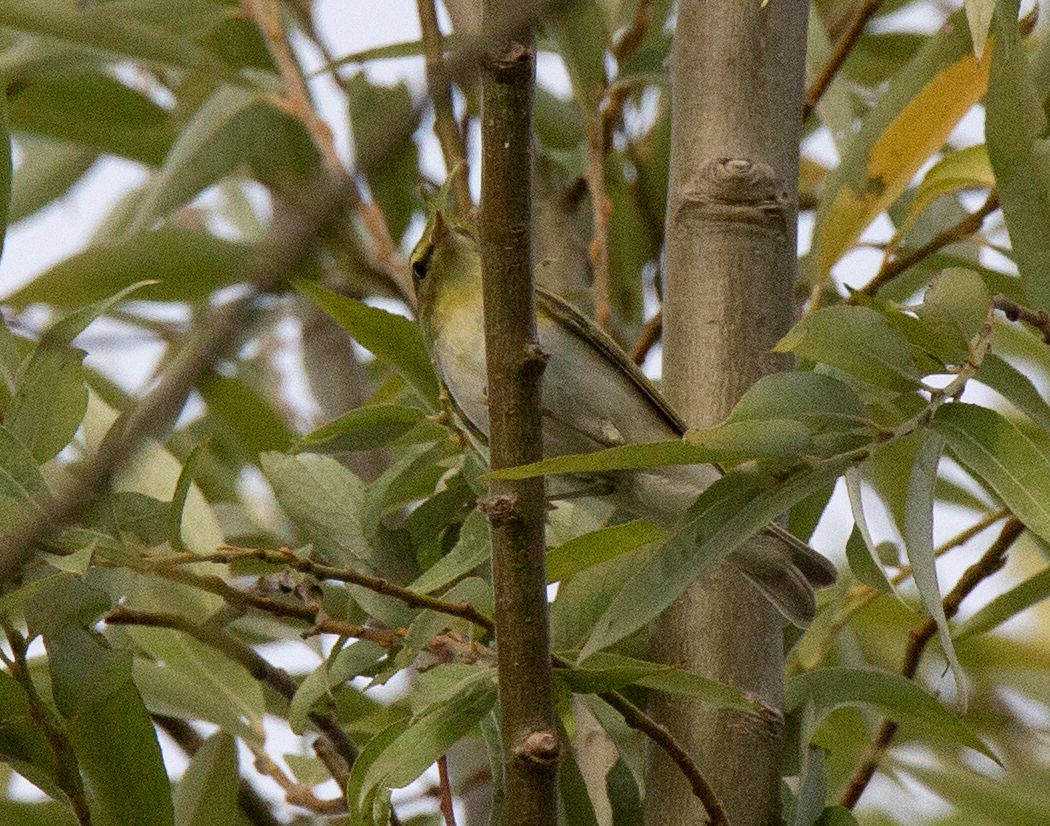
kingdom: Animalia
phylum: Chordata
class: Aves
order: Passeriformes
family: Phylloscopidae
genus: Phylloscopus
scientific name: Phylloscopus sibillatrix
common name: Wood warbler
